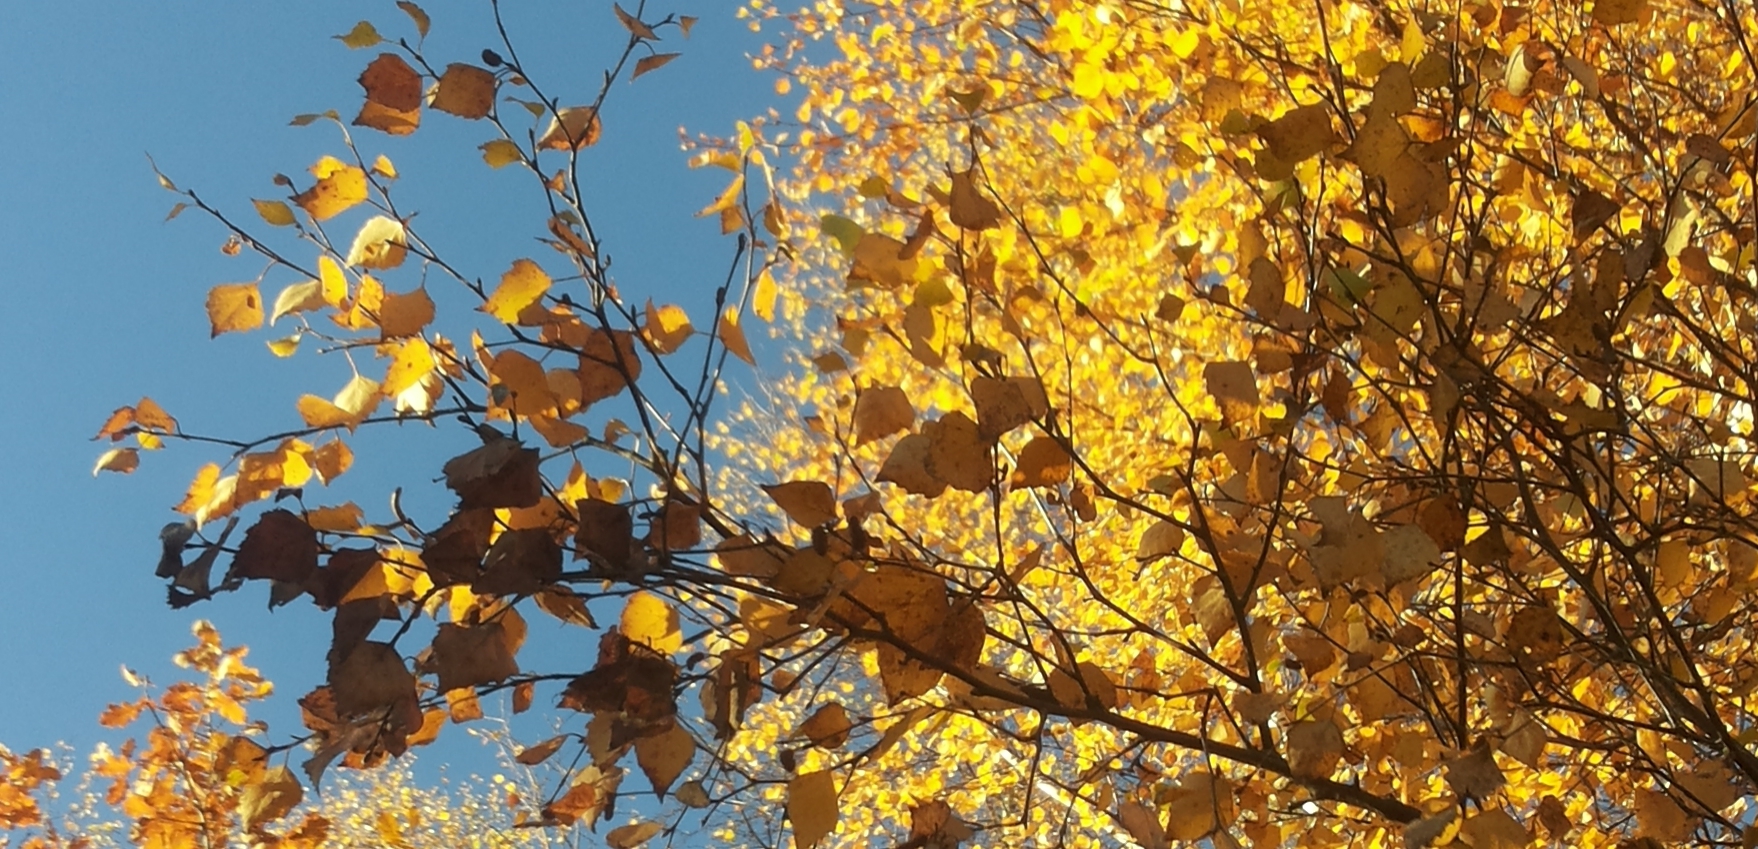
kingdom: Plantae
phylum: Tracheophyta
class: Magnoliopsida
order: Fagales
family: Betulaceae
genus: Betula
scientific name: Betula pendula
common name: Silver birch
